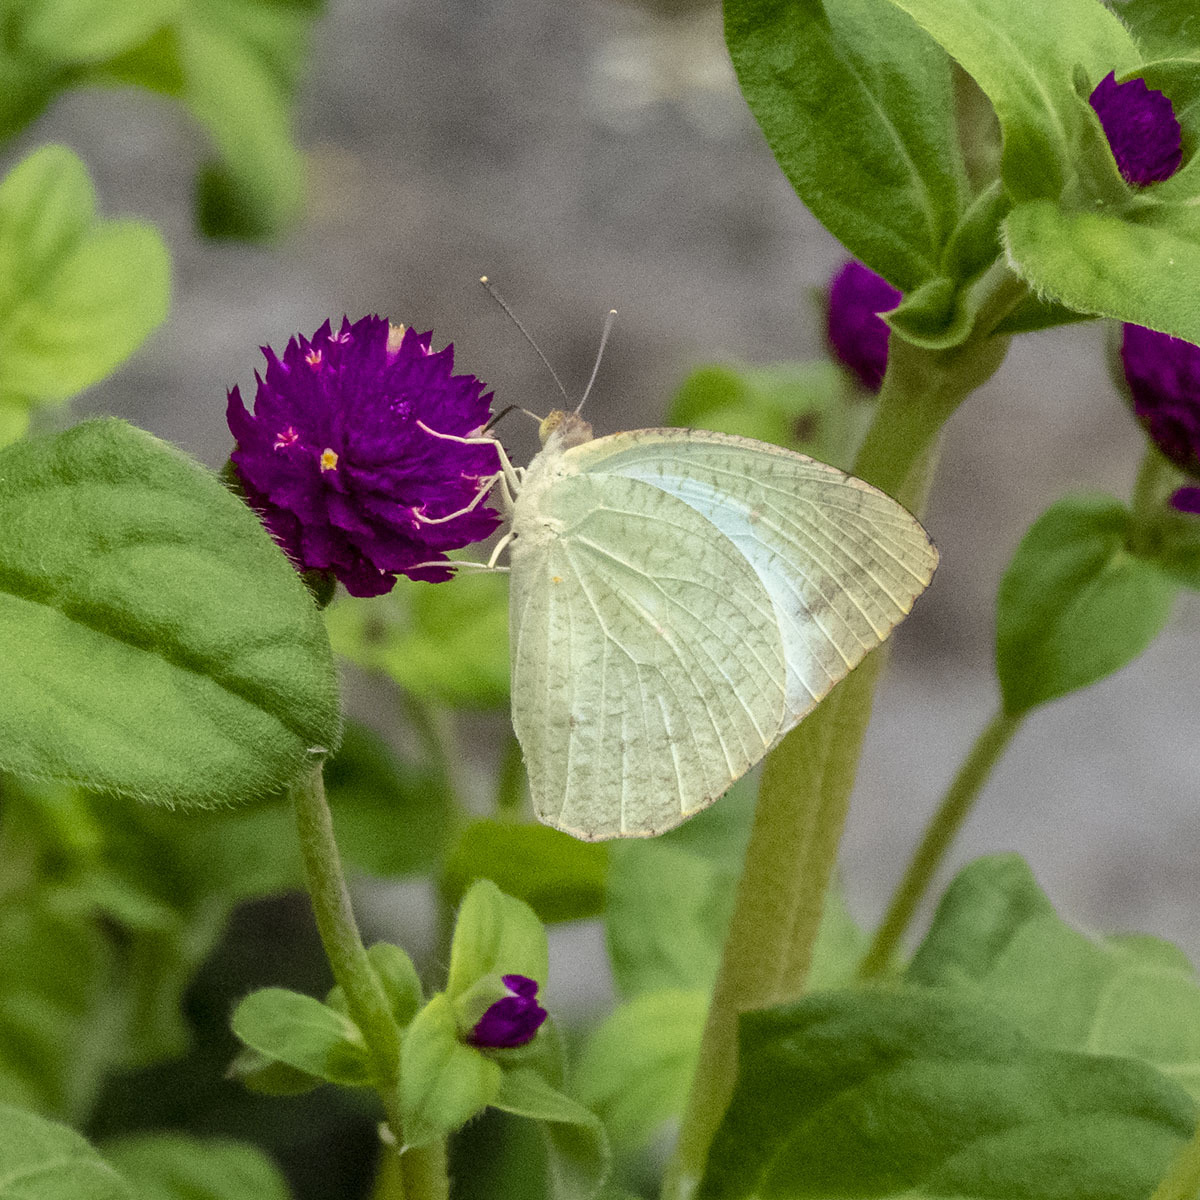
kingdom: Animalia
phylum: Arthropoda
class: Insecta
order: Lepidoptera
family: Pieridae
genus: Catopsilia
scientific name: Catopsilia pyranthe
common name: Mottled emigrant
